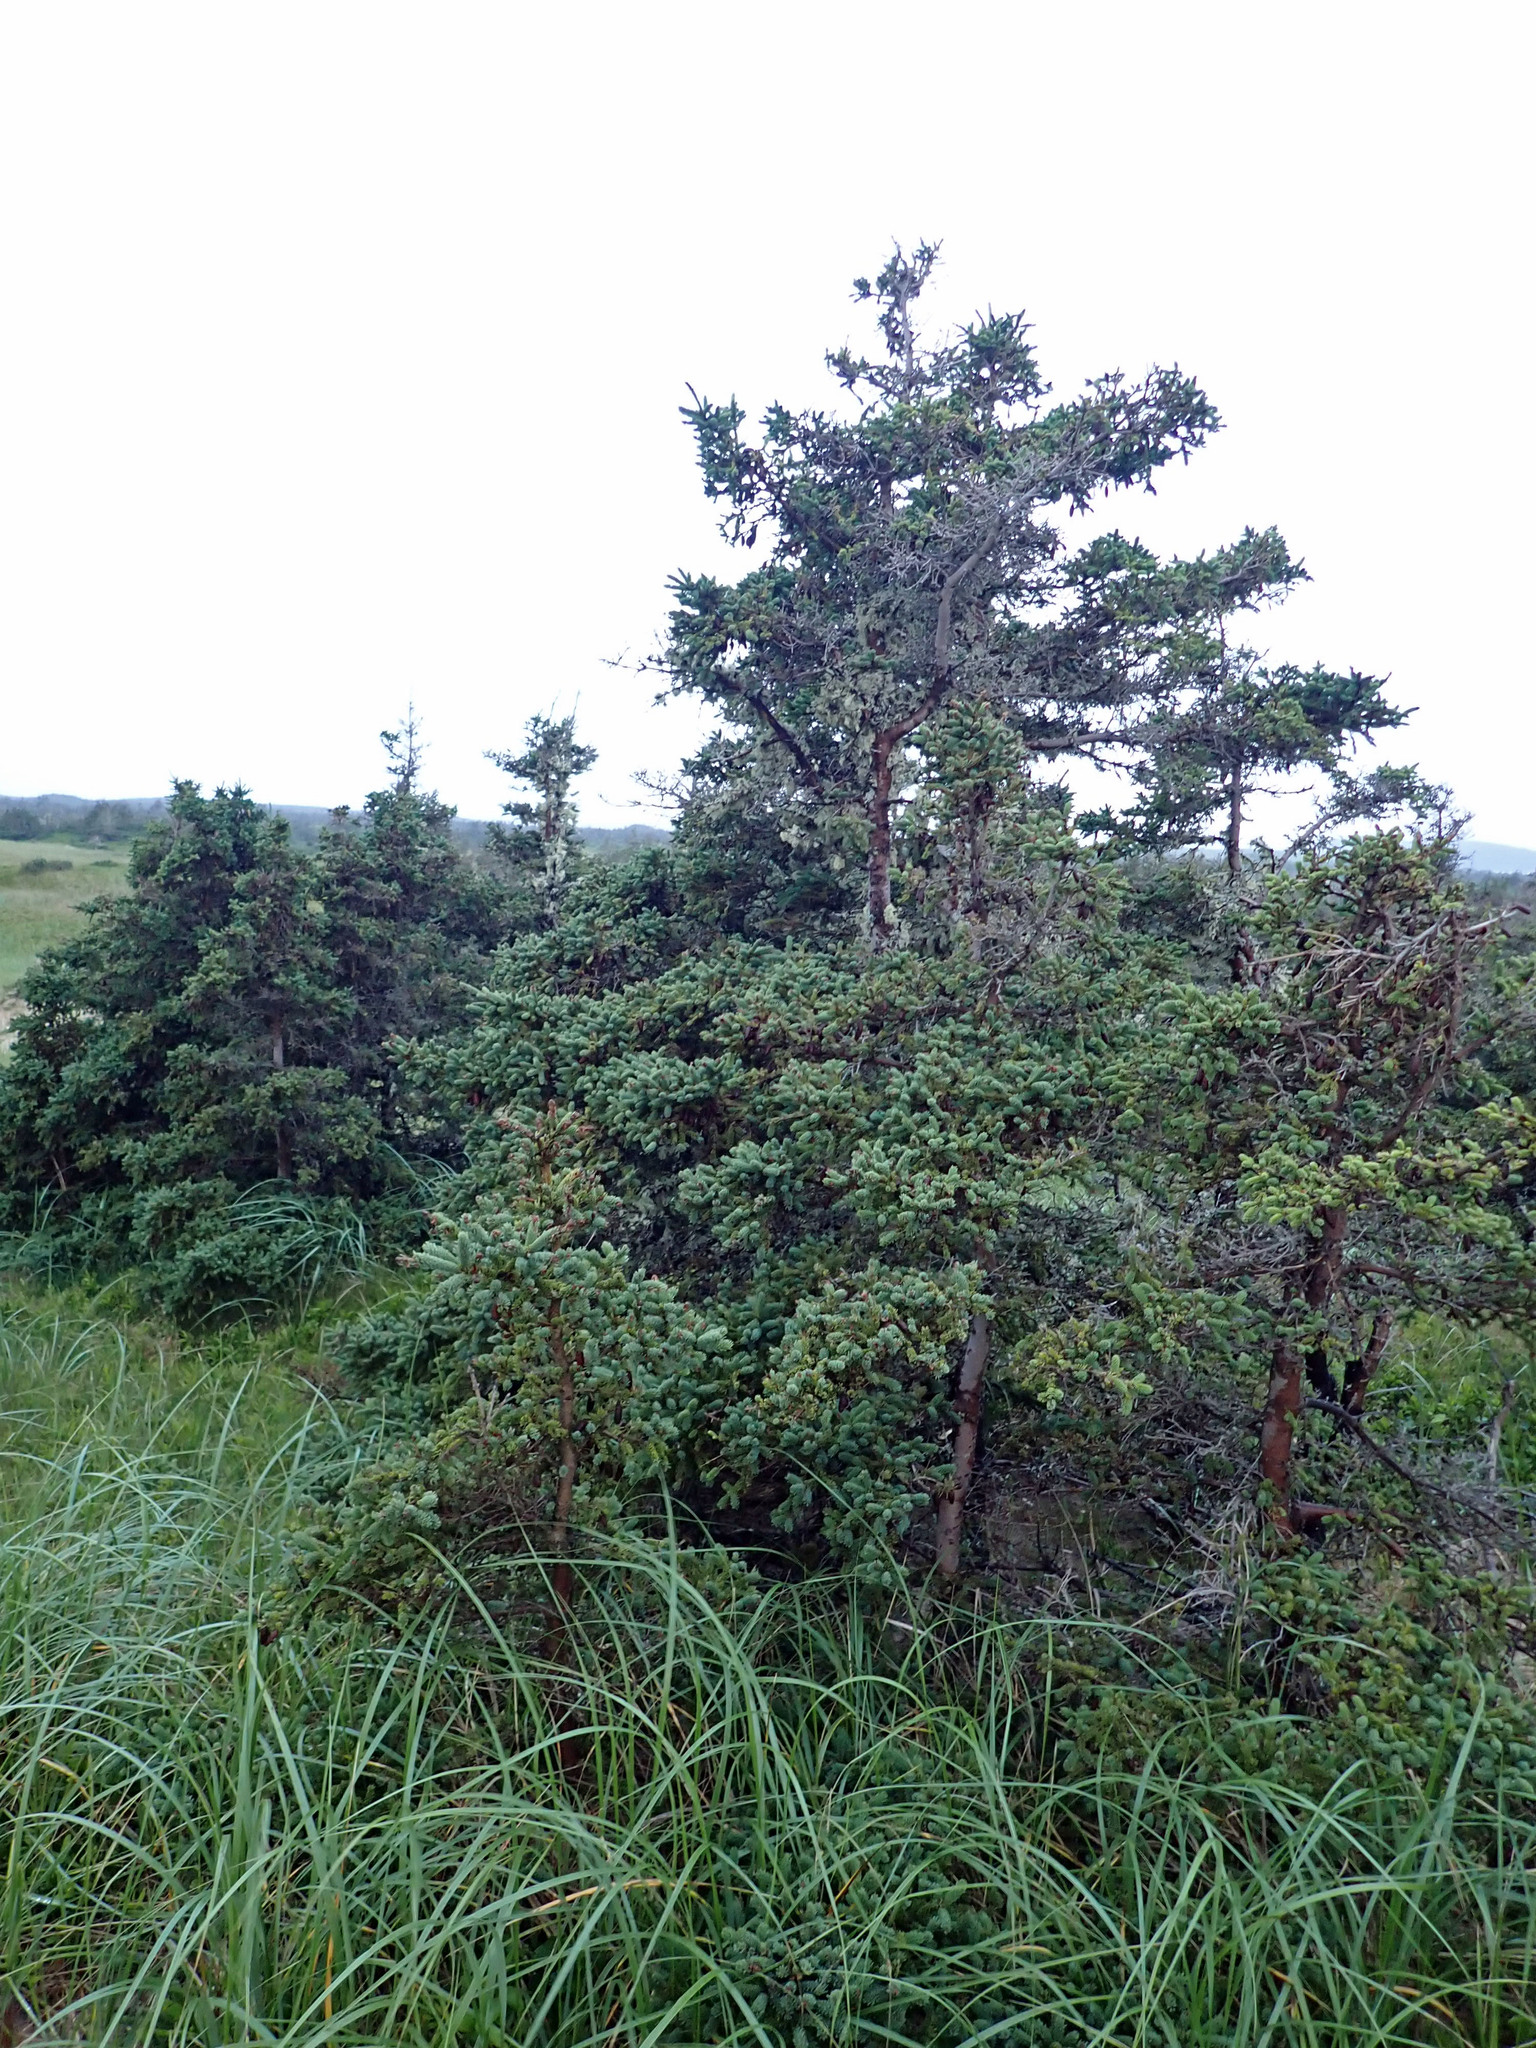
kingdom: Plantae
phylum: Tracheophyta
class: Pinopsida
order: Pinales
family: Pinaceae
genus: Picea
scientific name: Picea glauca
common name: White spruce
